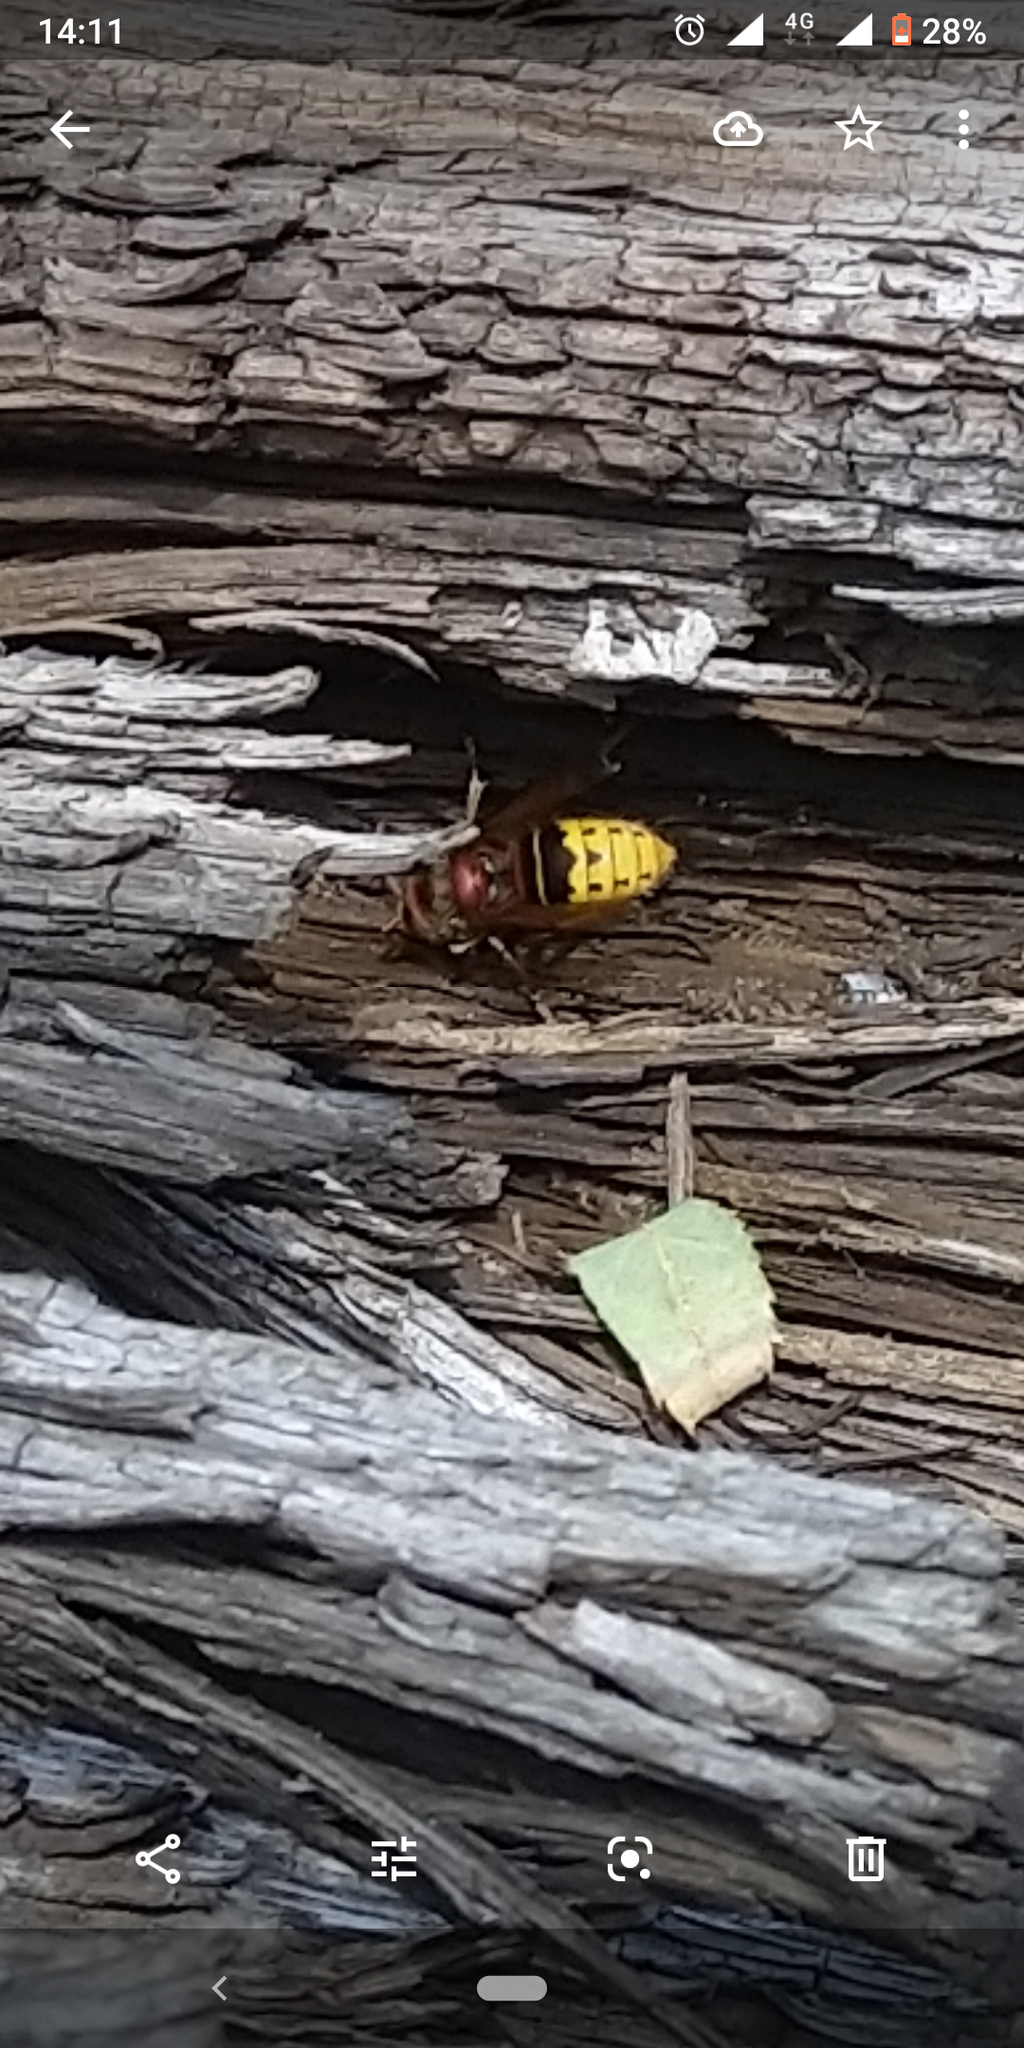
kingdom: Animalia
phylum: Arthropoda
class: Insecta
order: Hymenoptera
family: Vespidae
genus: Vespa
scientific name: Vespa crabro
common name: Hornet
